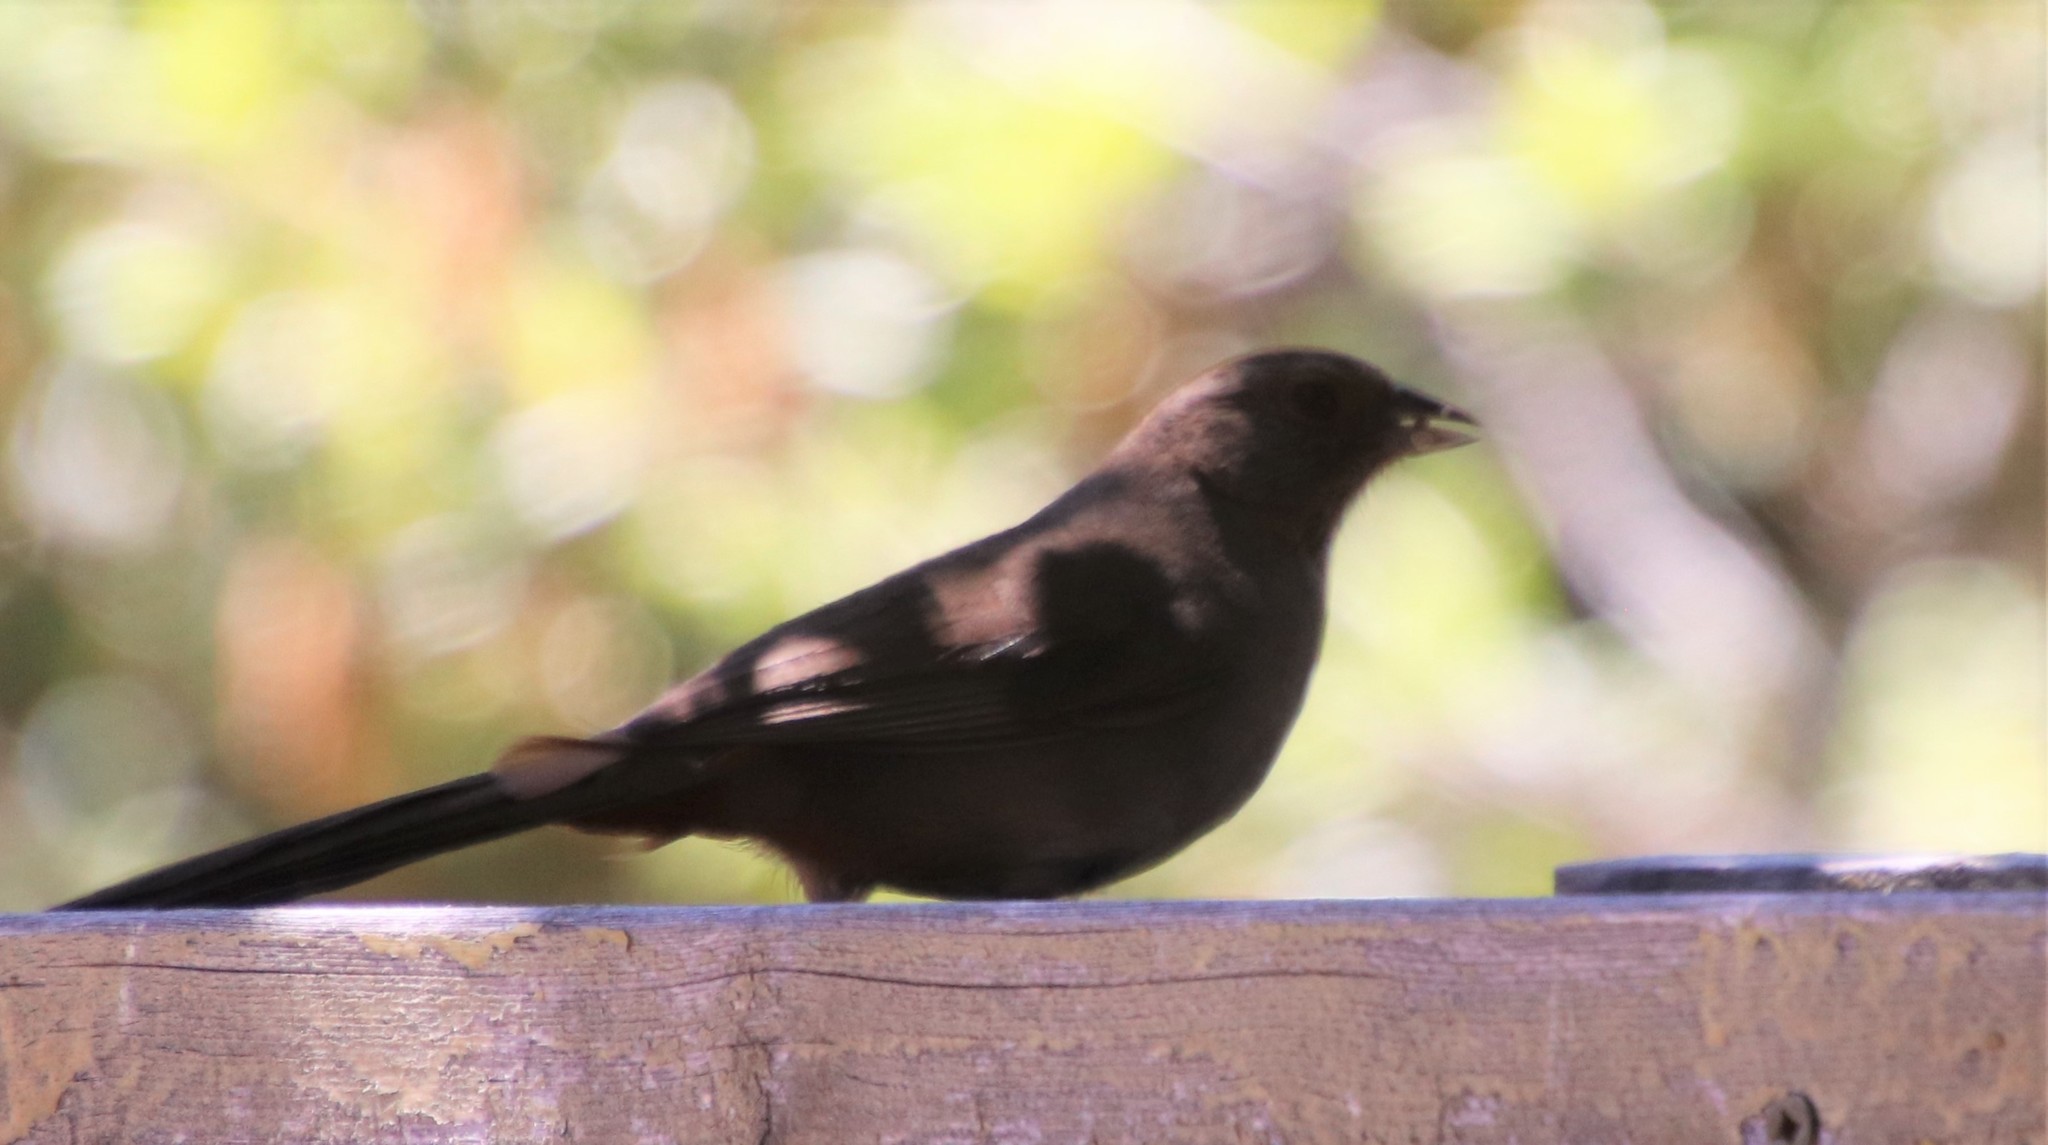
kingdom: Animalia
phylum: Chordata
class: Aves
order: Passeriformes
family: Passerellidae
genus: Melozone
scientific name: Melozone crissalis
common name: California towhee
